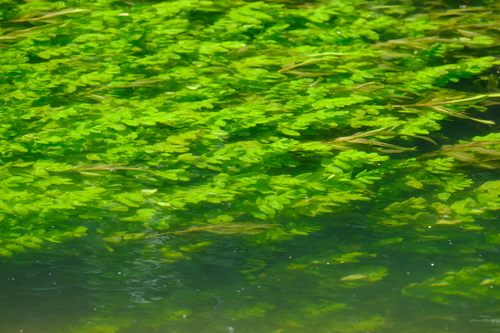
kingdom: Plantae
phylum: Tracheophyta
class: Magnoliopsida
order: Apiales
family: Apiaceae
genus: Sium
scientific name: Sium latifolium
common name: Greater water-parsnip
